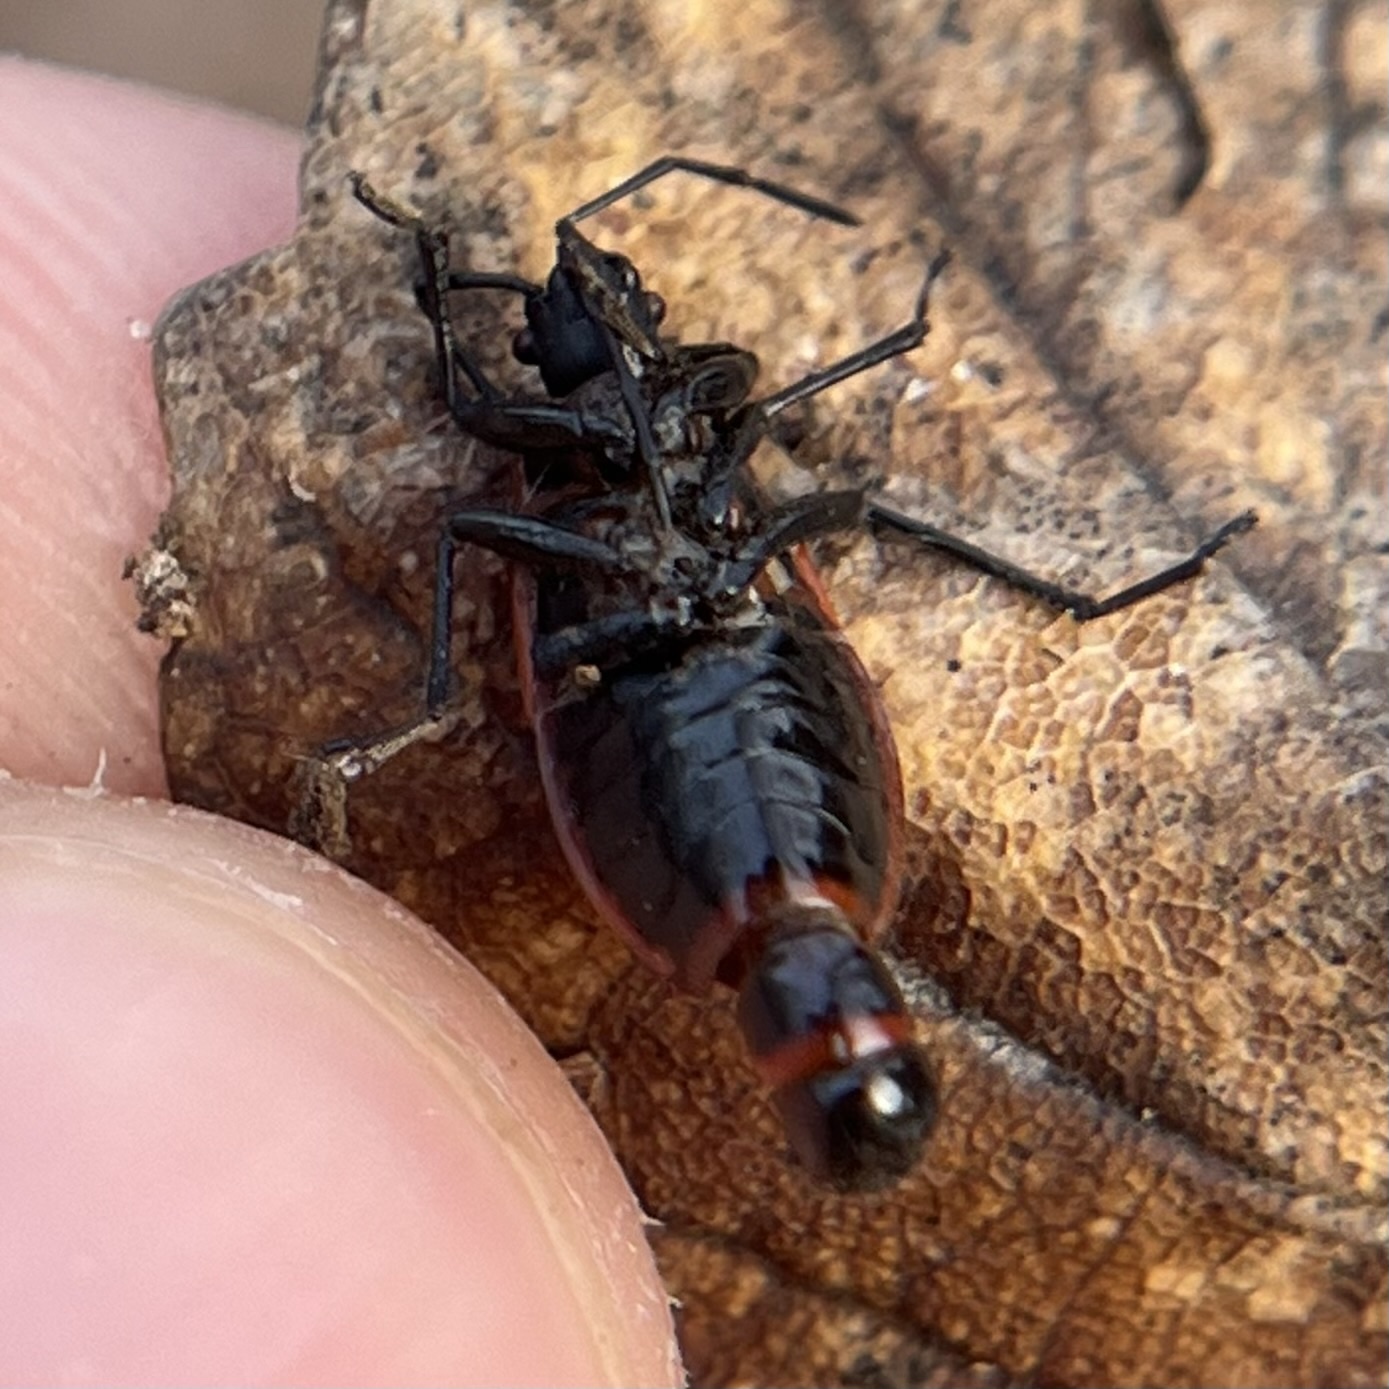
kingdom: Animalia
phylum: Arthropoda
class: Insecta
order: Hemiptera
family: Pyrrhocoridae
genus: Pyrrhocoris
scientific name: Pyrrhocoris apterus
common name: Firebug
